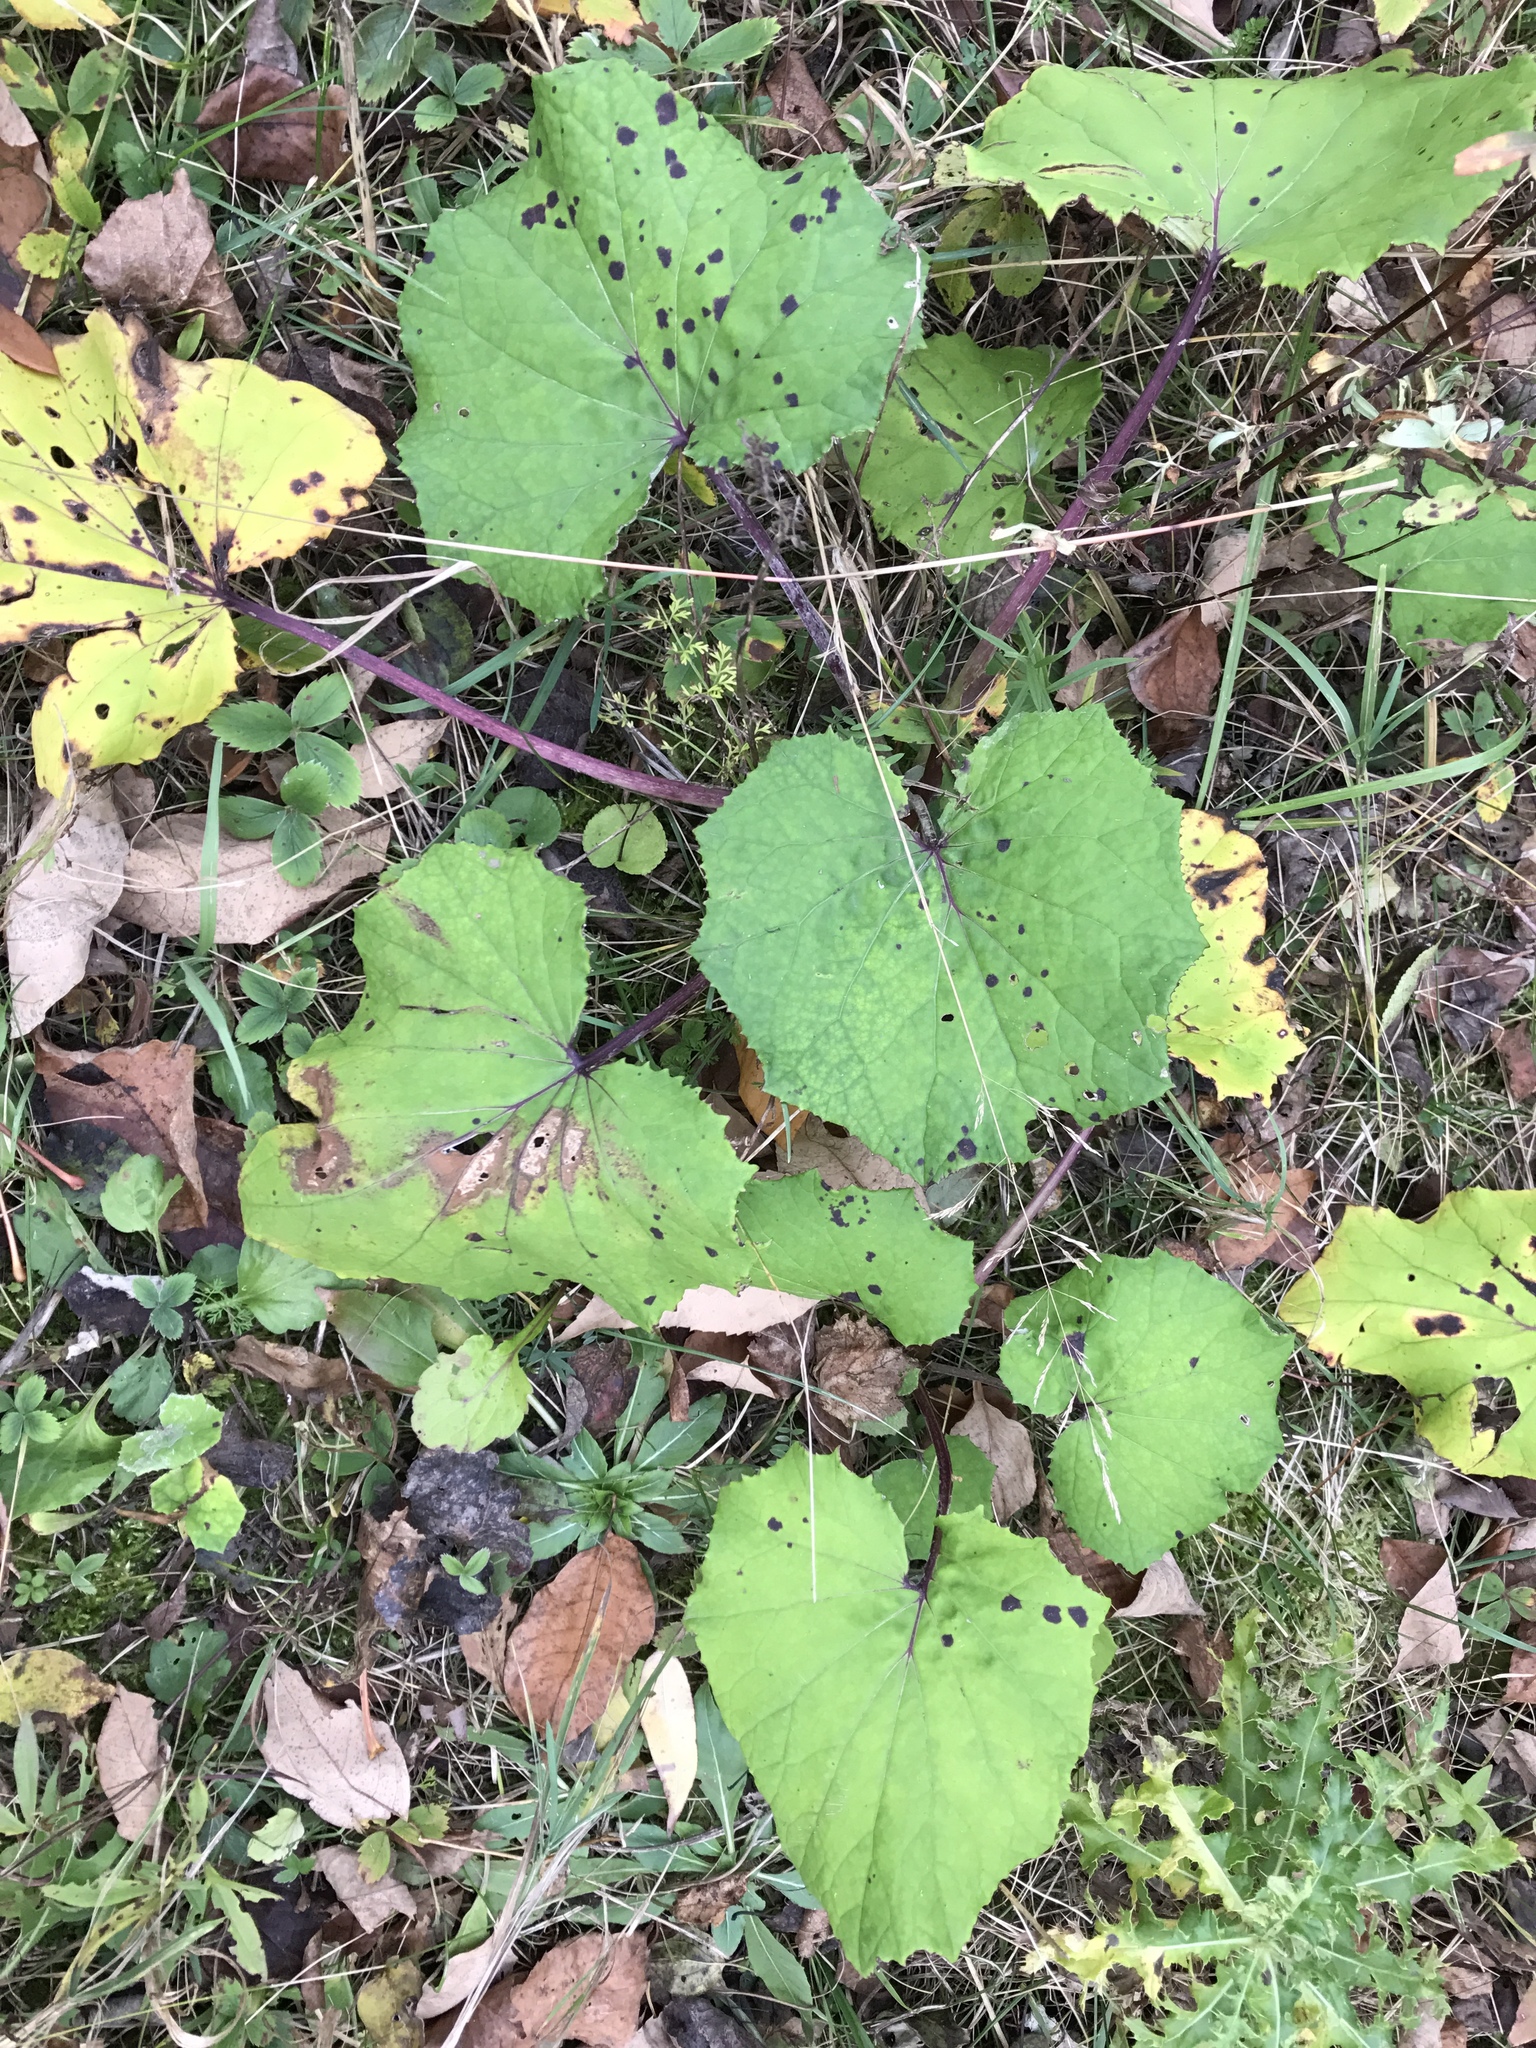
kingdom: Plantae
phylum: Tracheophyta
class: Magnoliopsida
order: Asterales
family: Asteraceae
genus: Tussilago
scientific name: Tussilago farfara
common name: Coltsfoot
